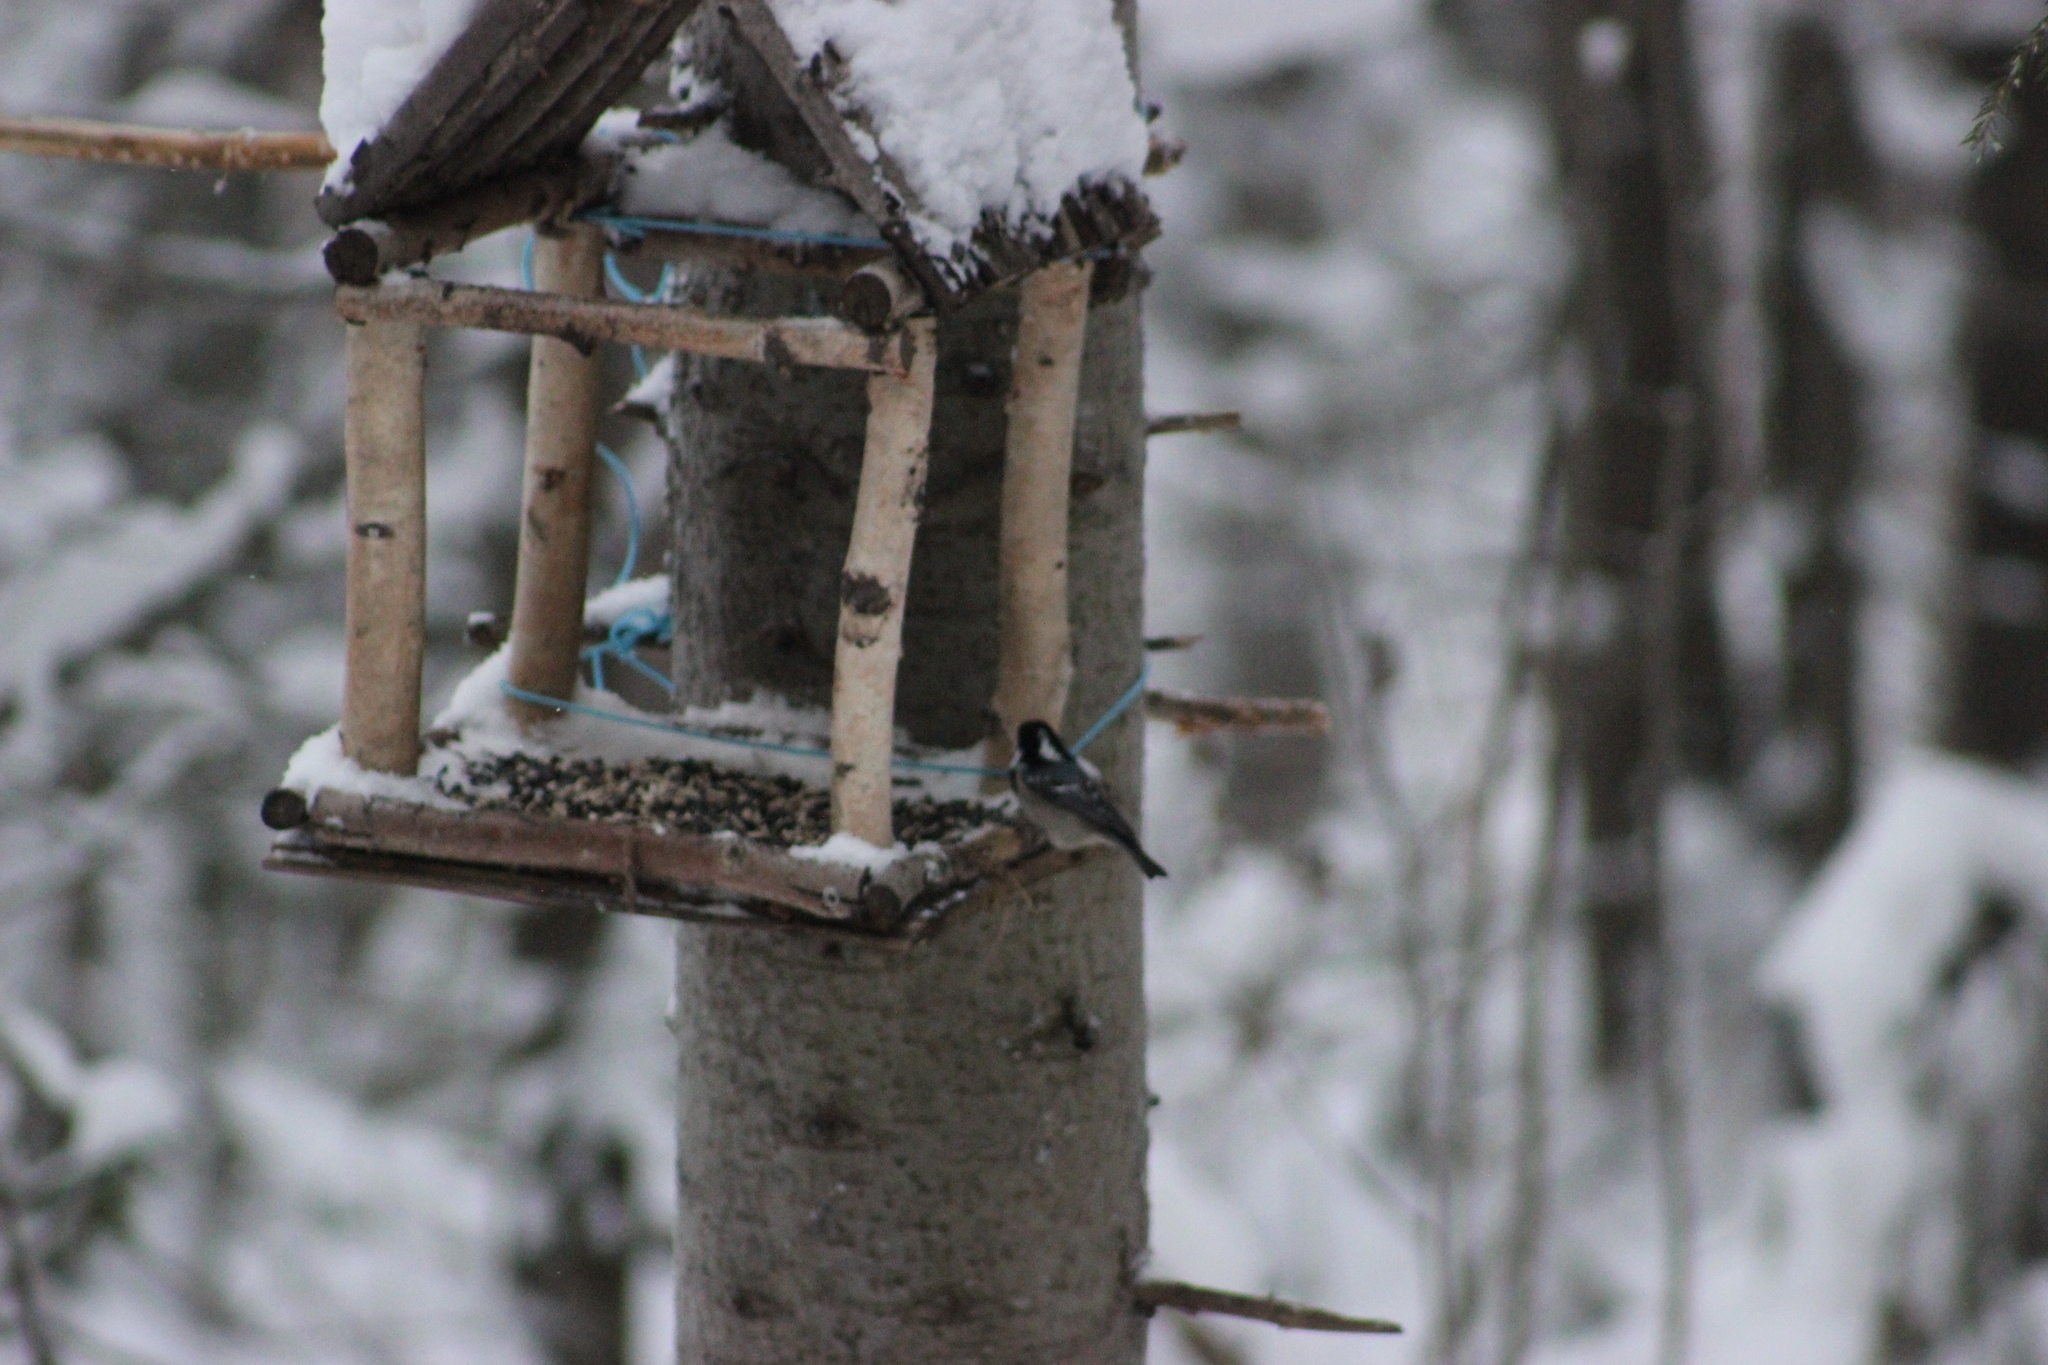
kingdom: Animalia
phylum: Chordata
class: Aves
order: Passeriformes
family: Paridae
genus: Periparus
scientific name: Periparus ater
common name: Coal tit
